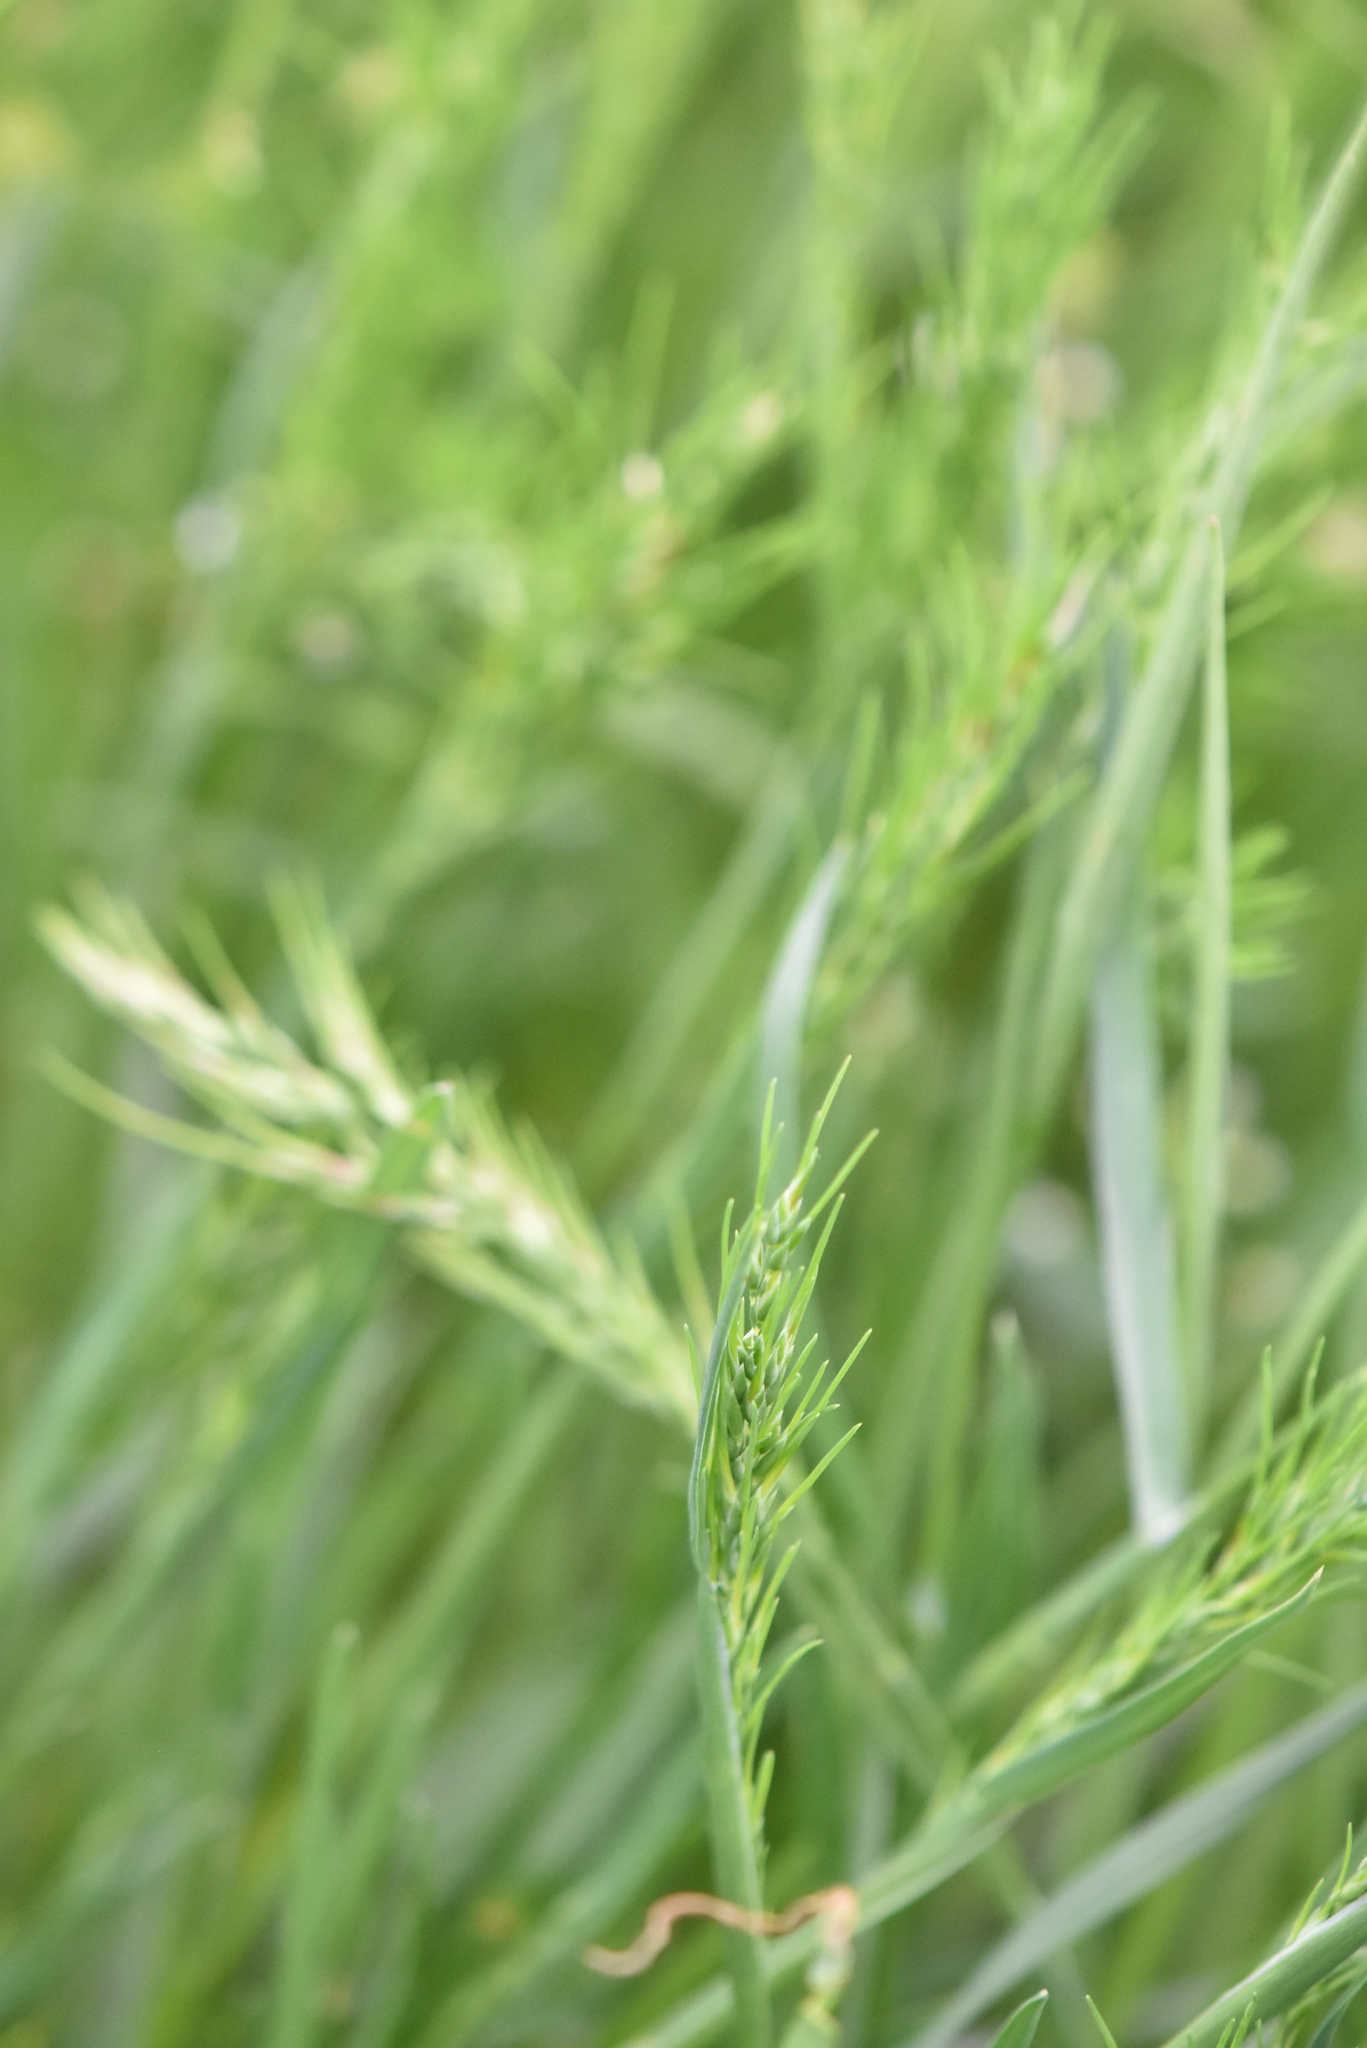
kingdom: Plantae
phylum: Tracheophyta
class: Liliopsida
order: Poales
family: Poaceae
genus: Poa
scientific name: Poa bulbosa
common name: Bulbous bluegrass
